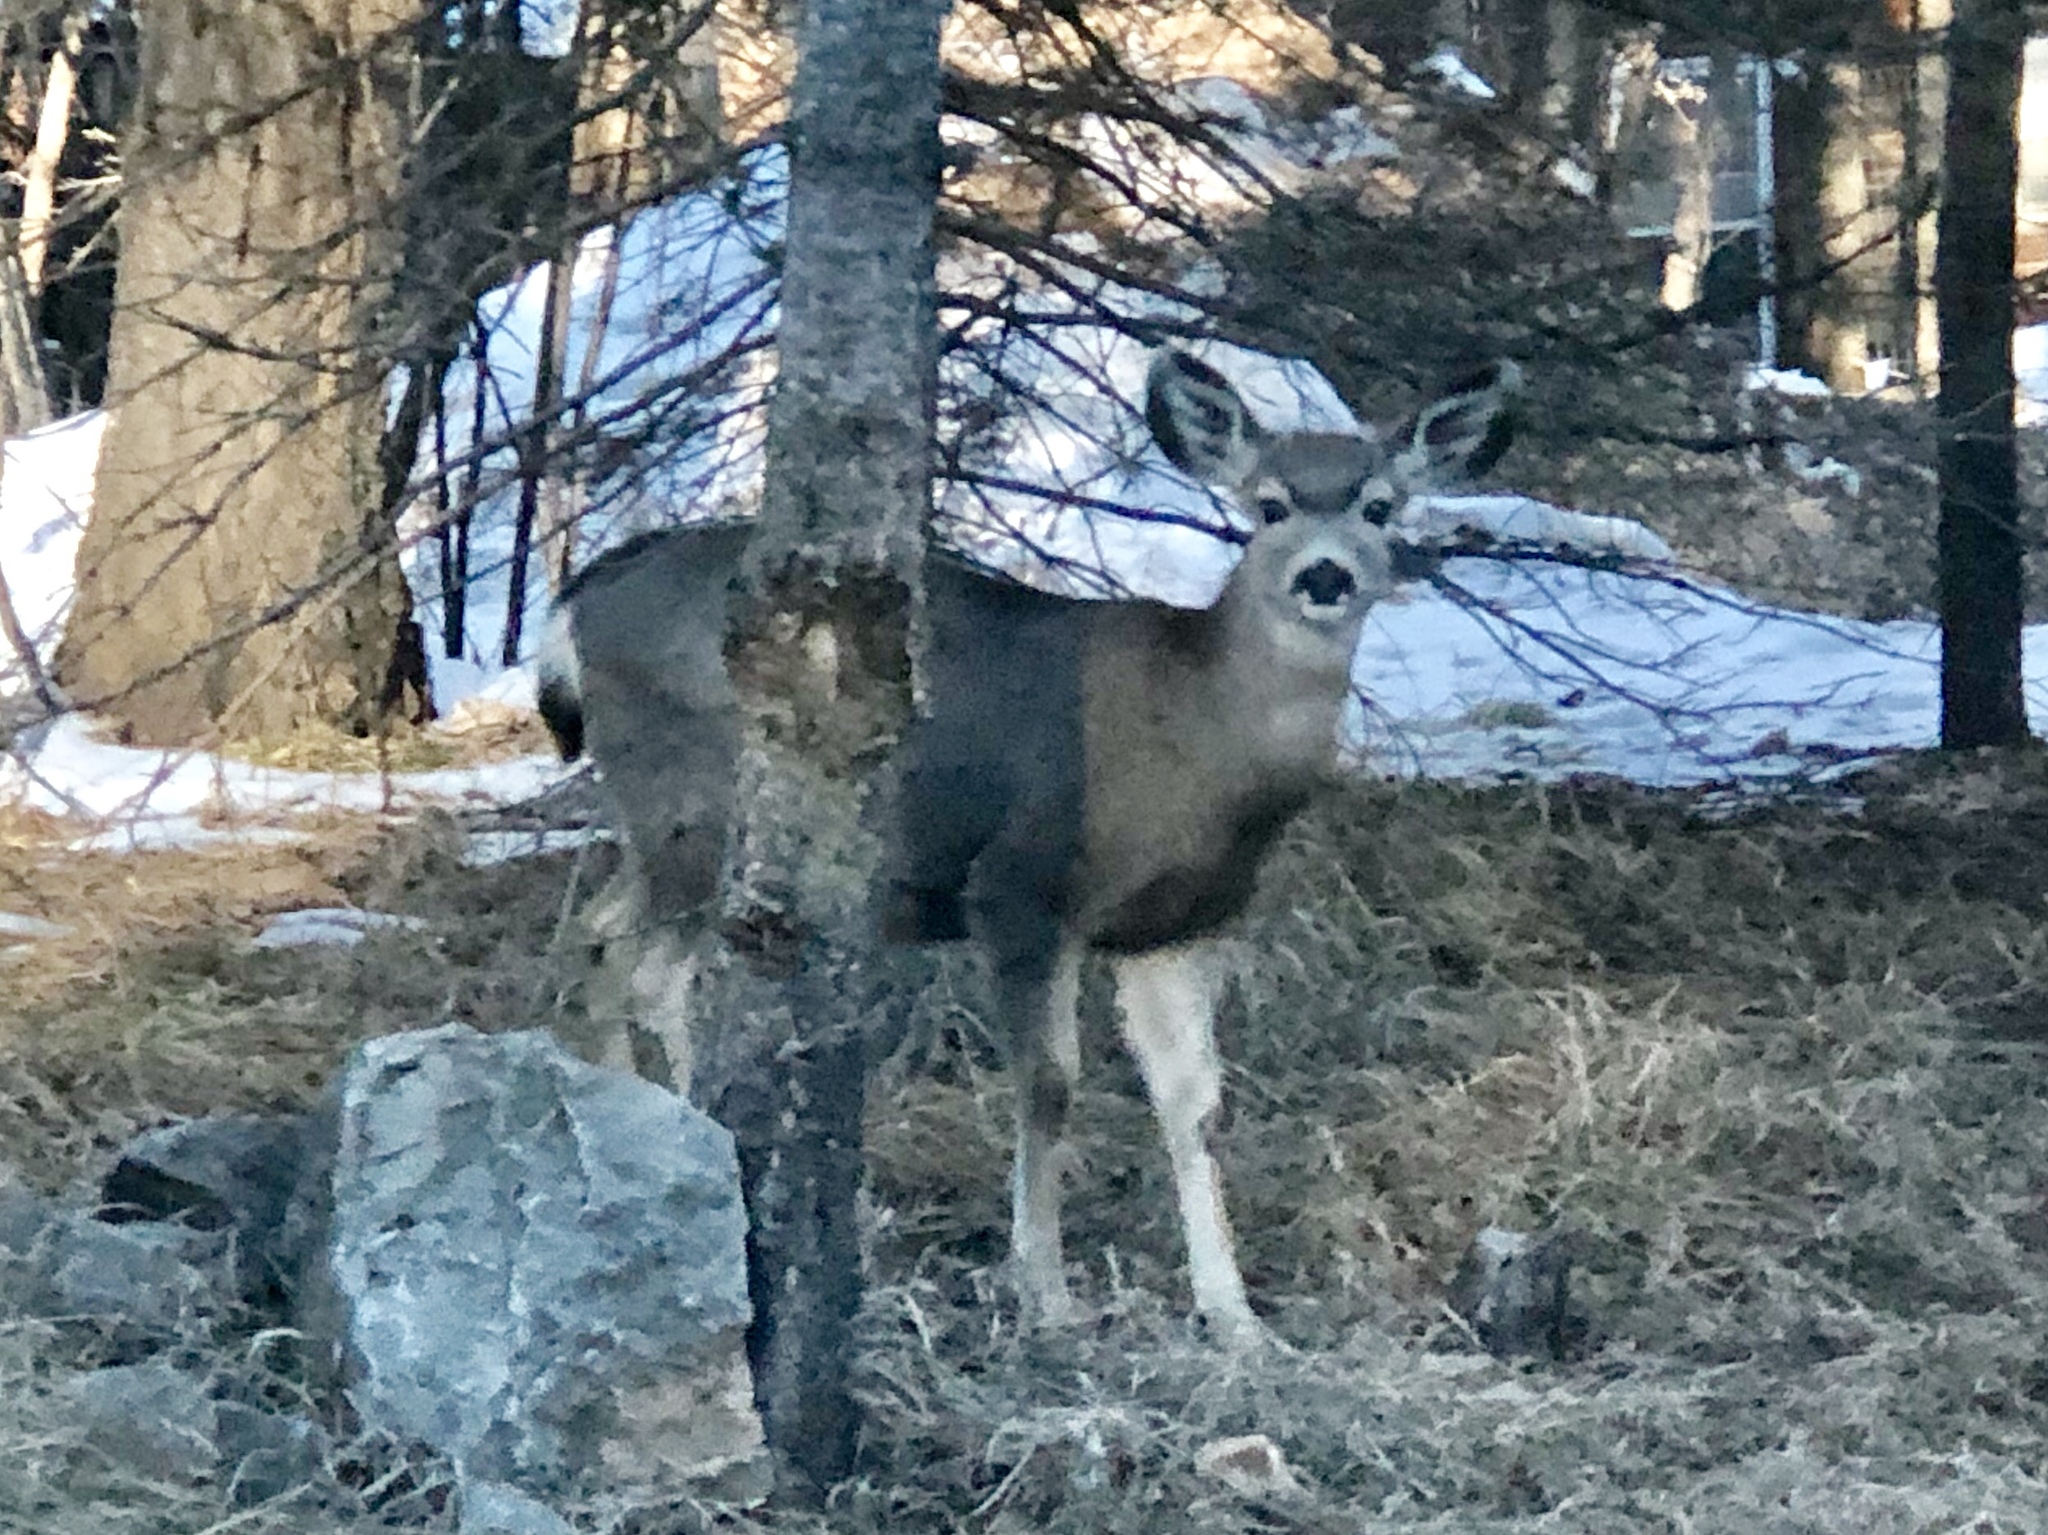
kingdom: Animalia
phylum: Chordata
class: Mammalia
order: Artiodactyla
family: Cervidae
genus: Odocoileus
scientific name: Odocoileus hemionus
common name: Mule deer
